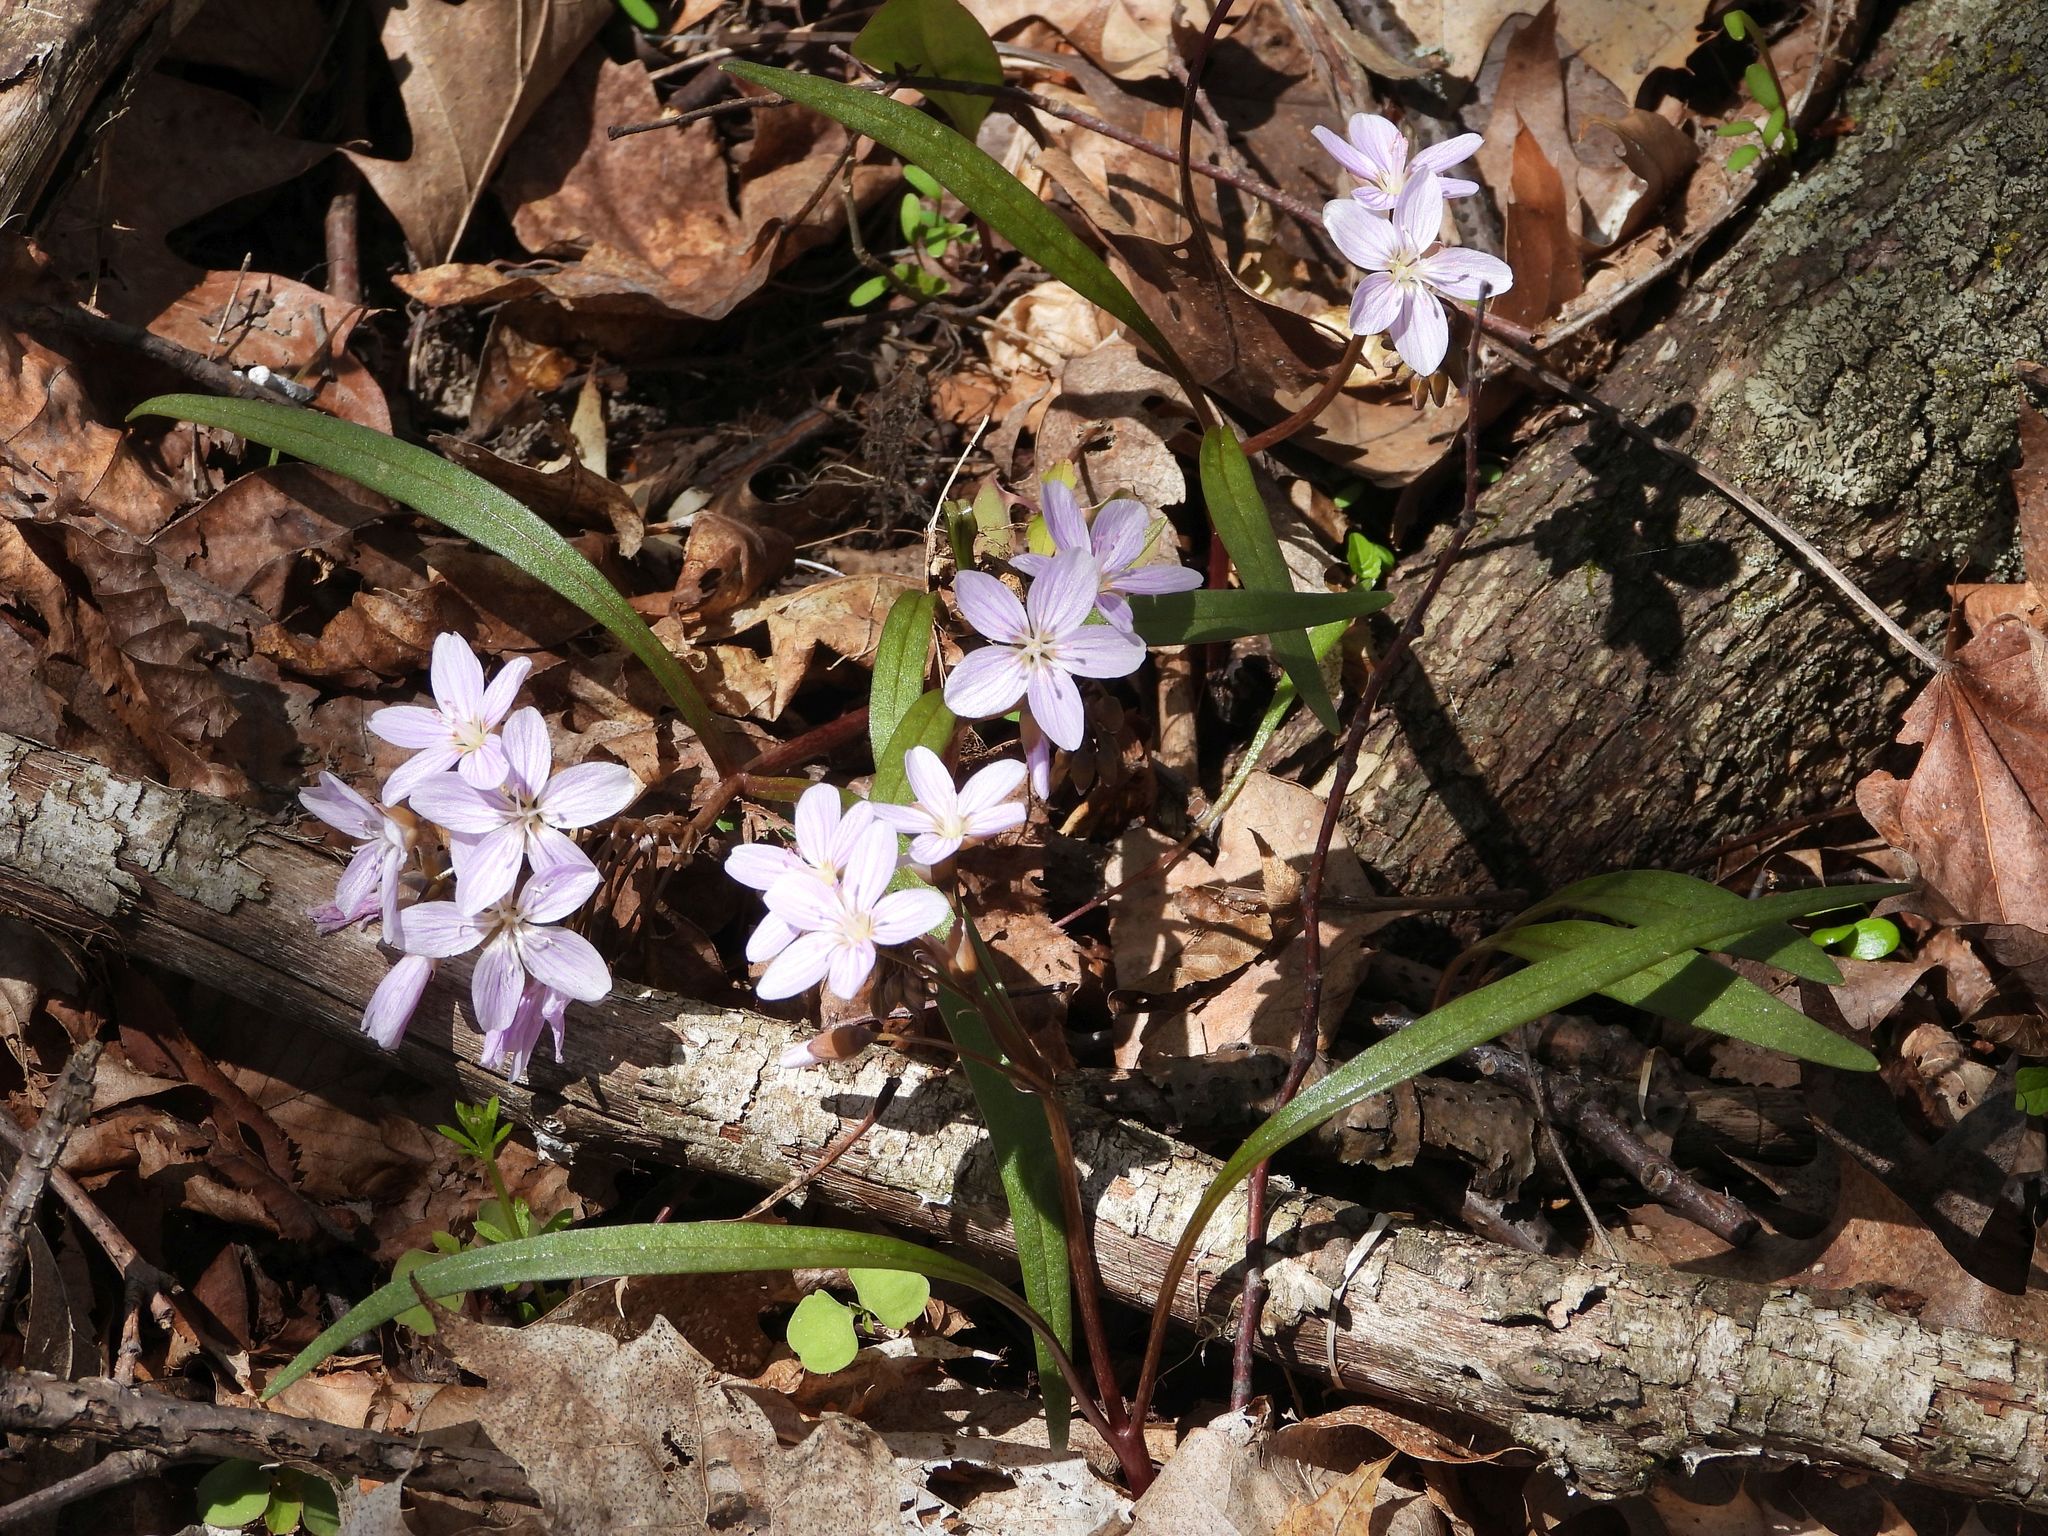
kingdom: Plantae
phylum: Tracheophyta
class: Magnoliopsida
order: Caryophyllales
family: Montiaceae
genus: Claytonia
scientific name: Claytonia virginica
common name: Virginia springbeauty
